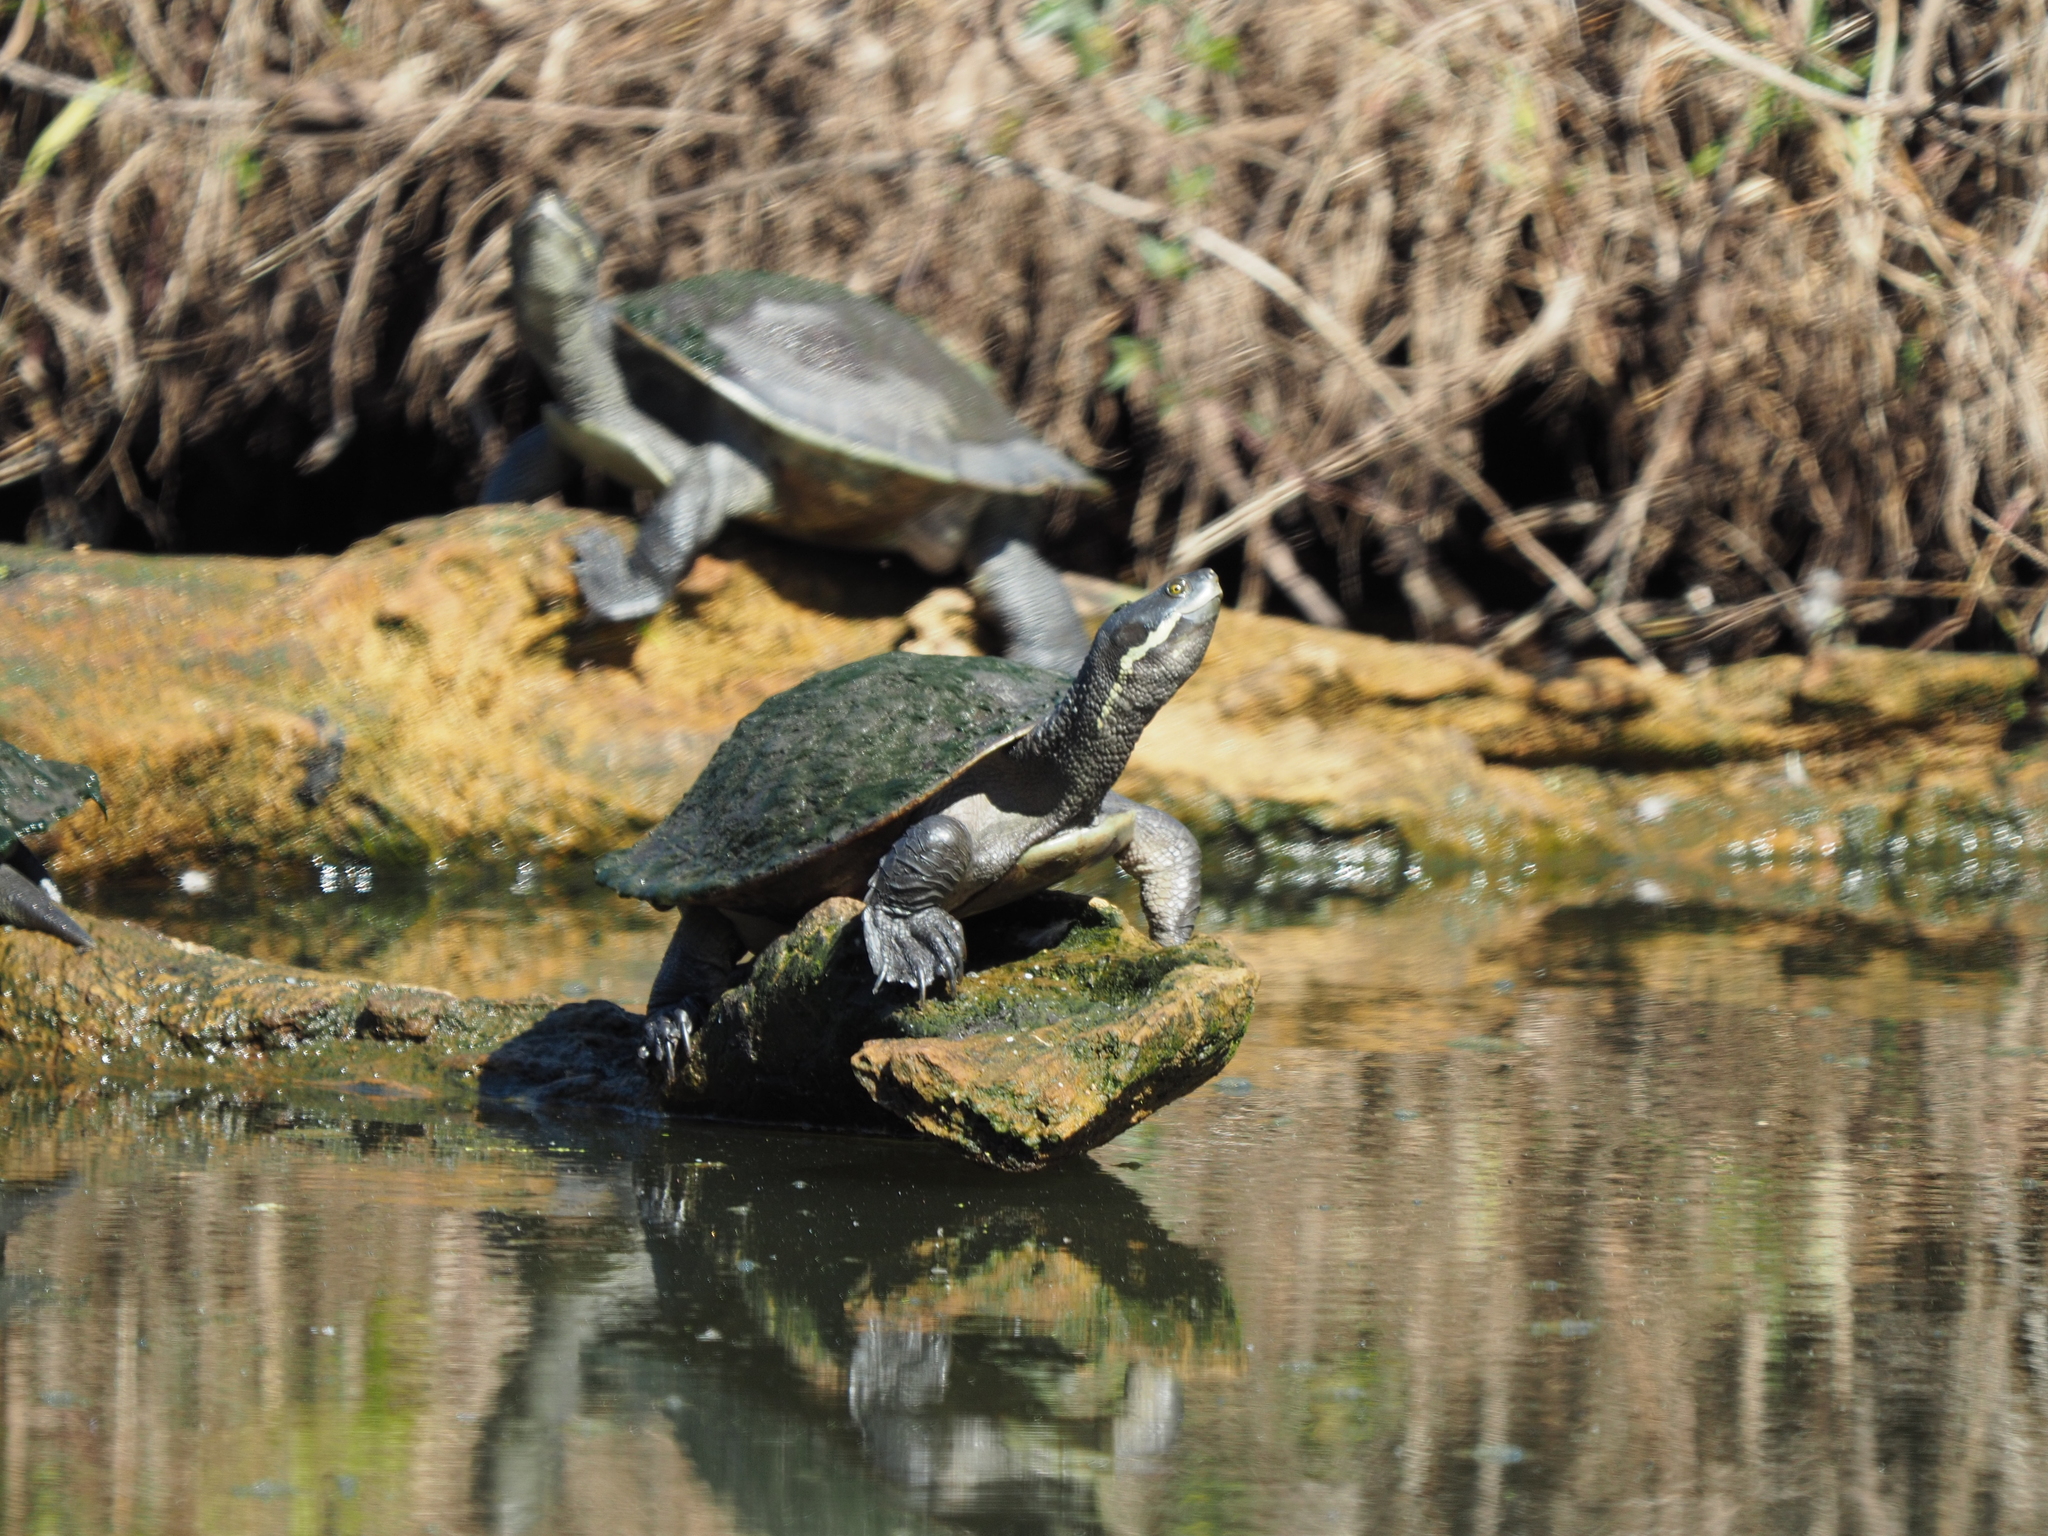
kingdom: Animalia
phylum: Chordata
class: Testudines
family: Chelidae
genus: Emydura
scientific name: Emydura macquarii
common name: Murray river turtle
